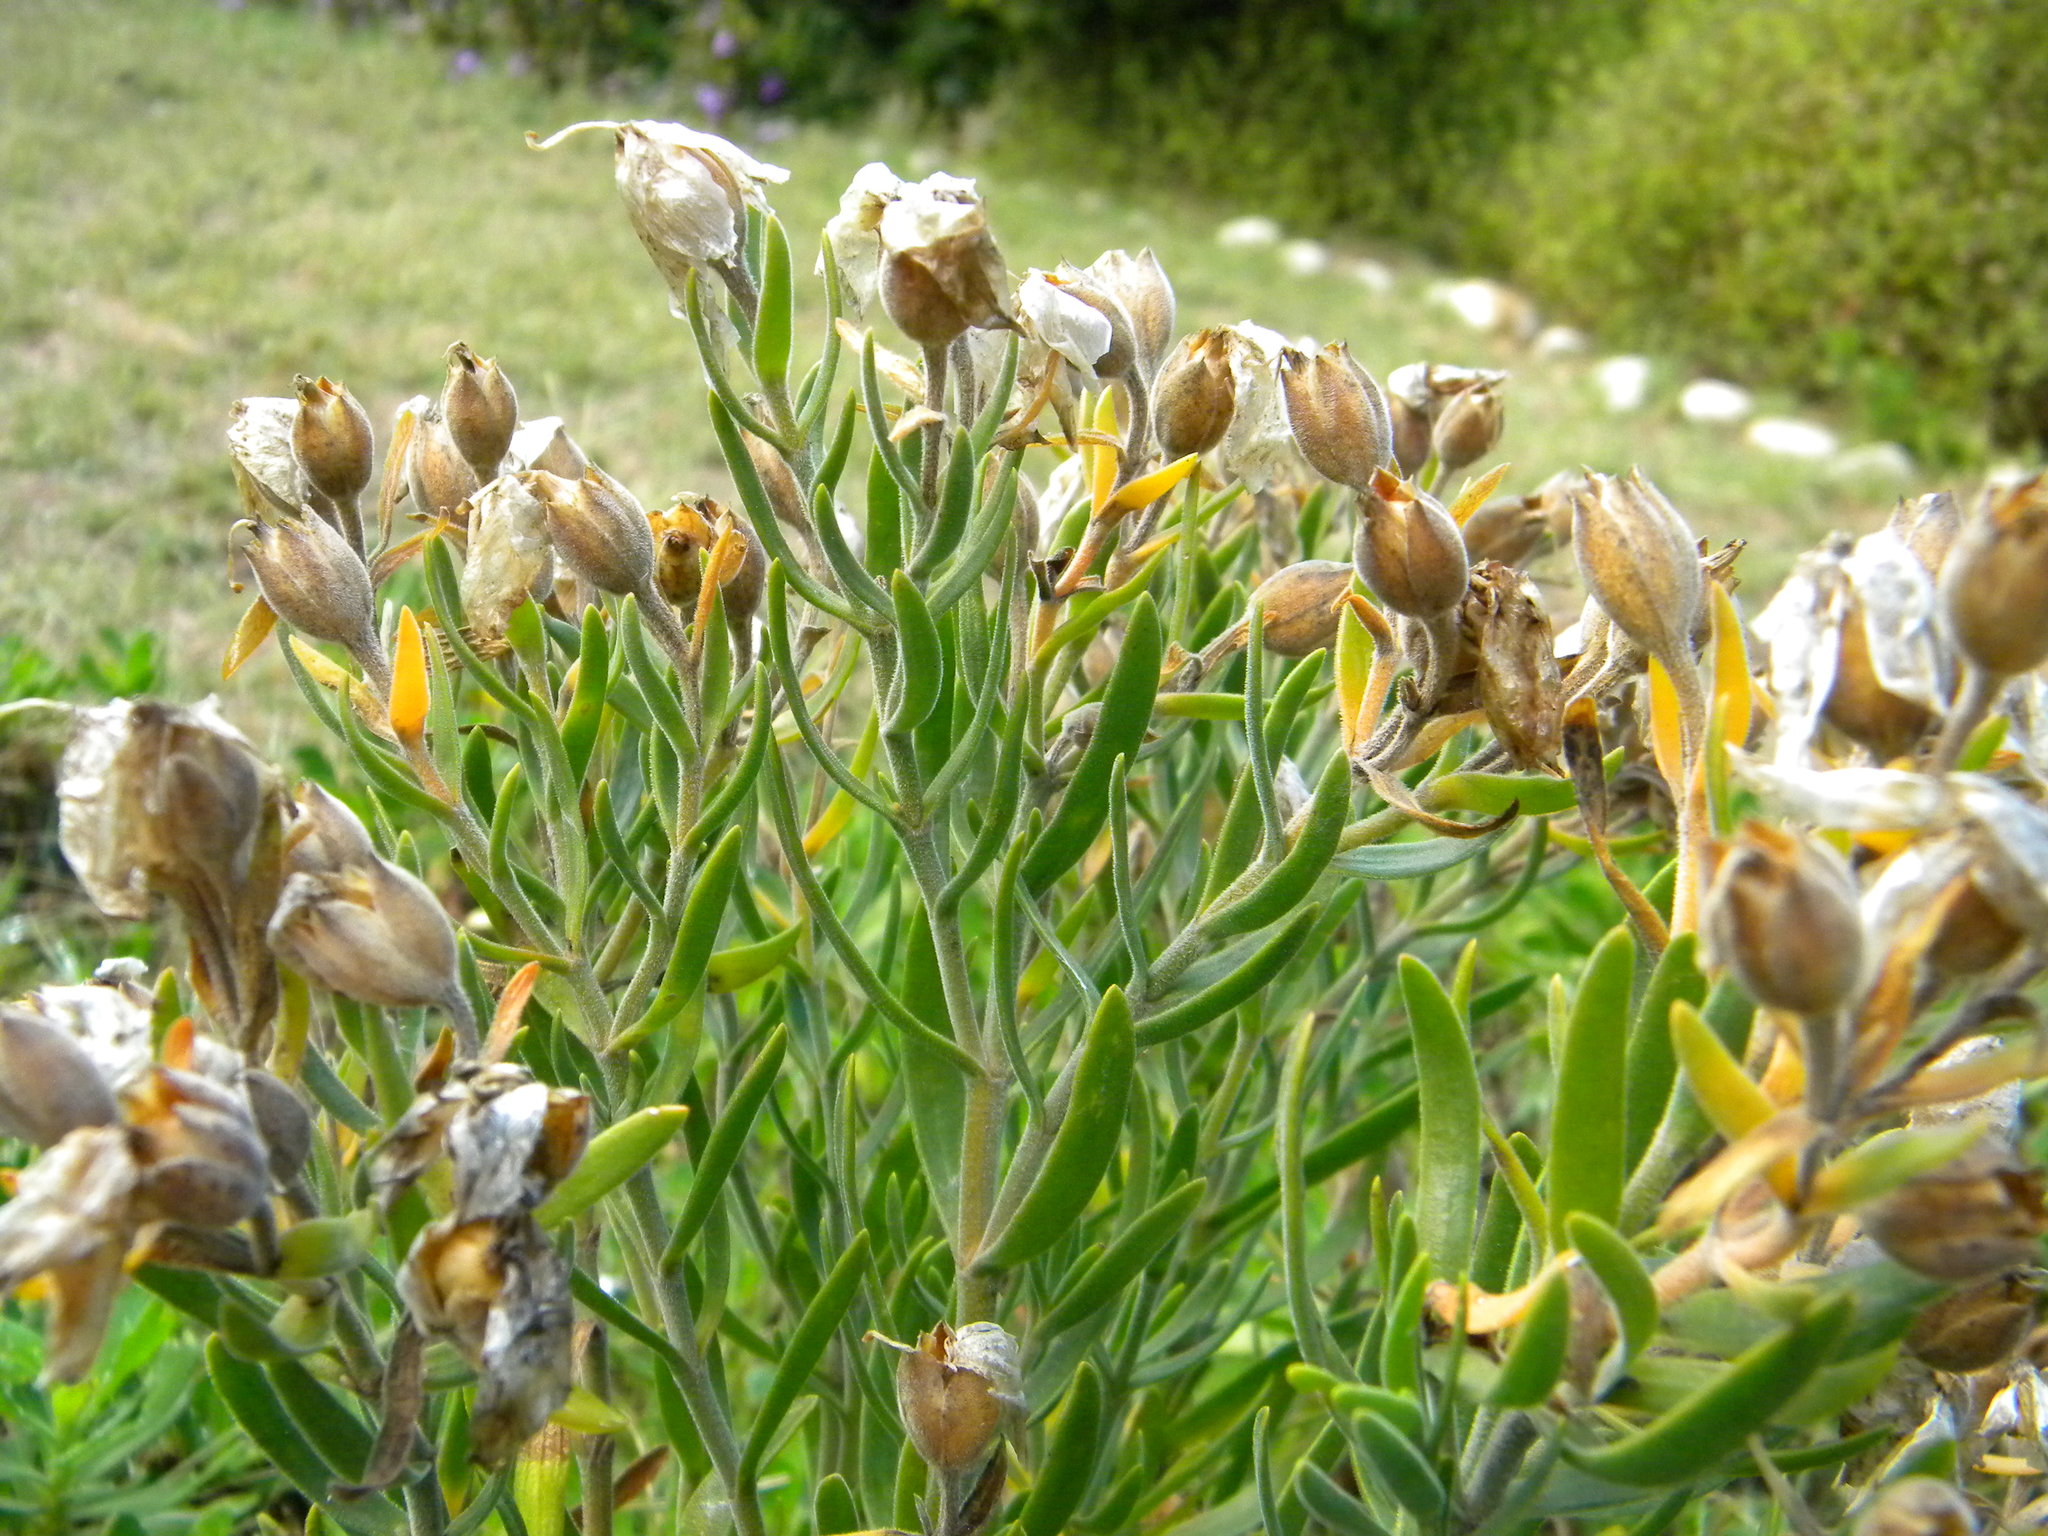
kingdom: Plantae
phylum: Tracheophyta
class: Magnoliopsida
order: Gentianales
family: Gentianaceae
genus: Orphium
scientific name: Orphium frutescens
